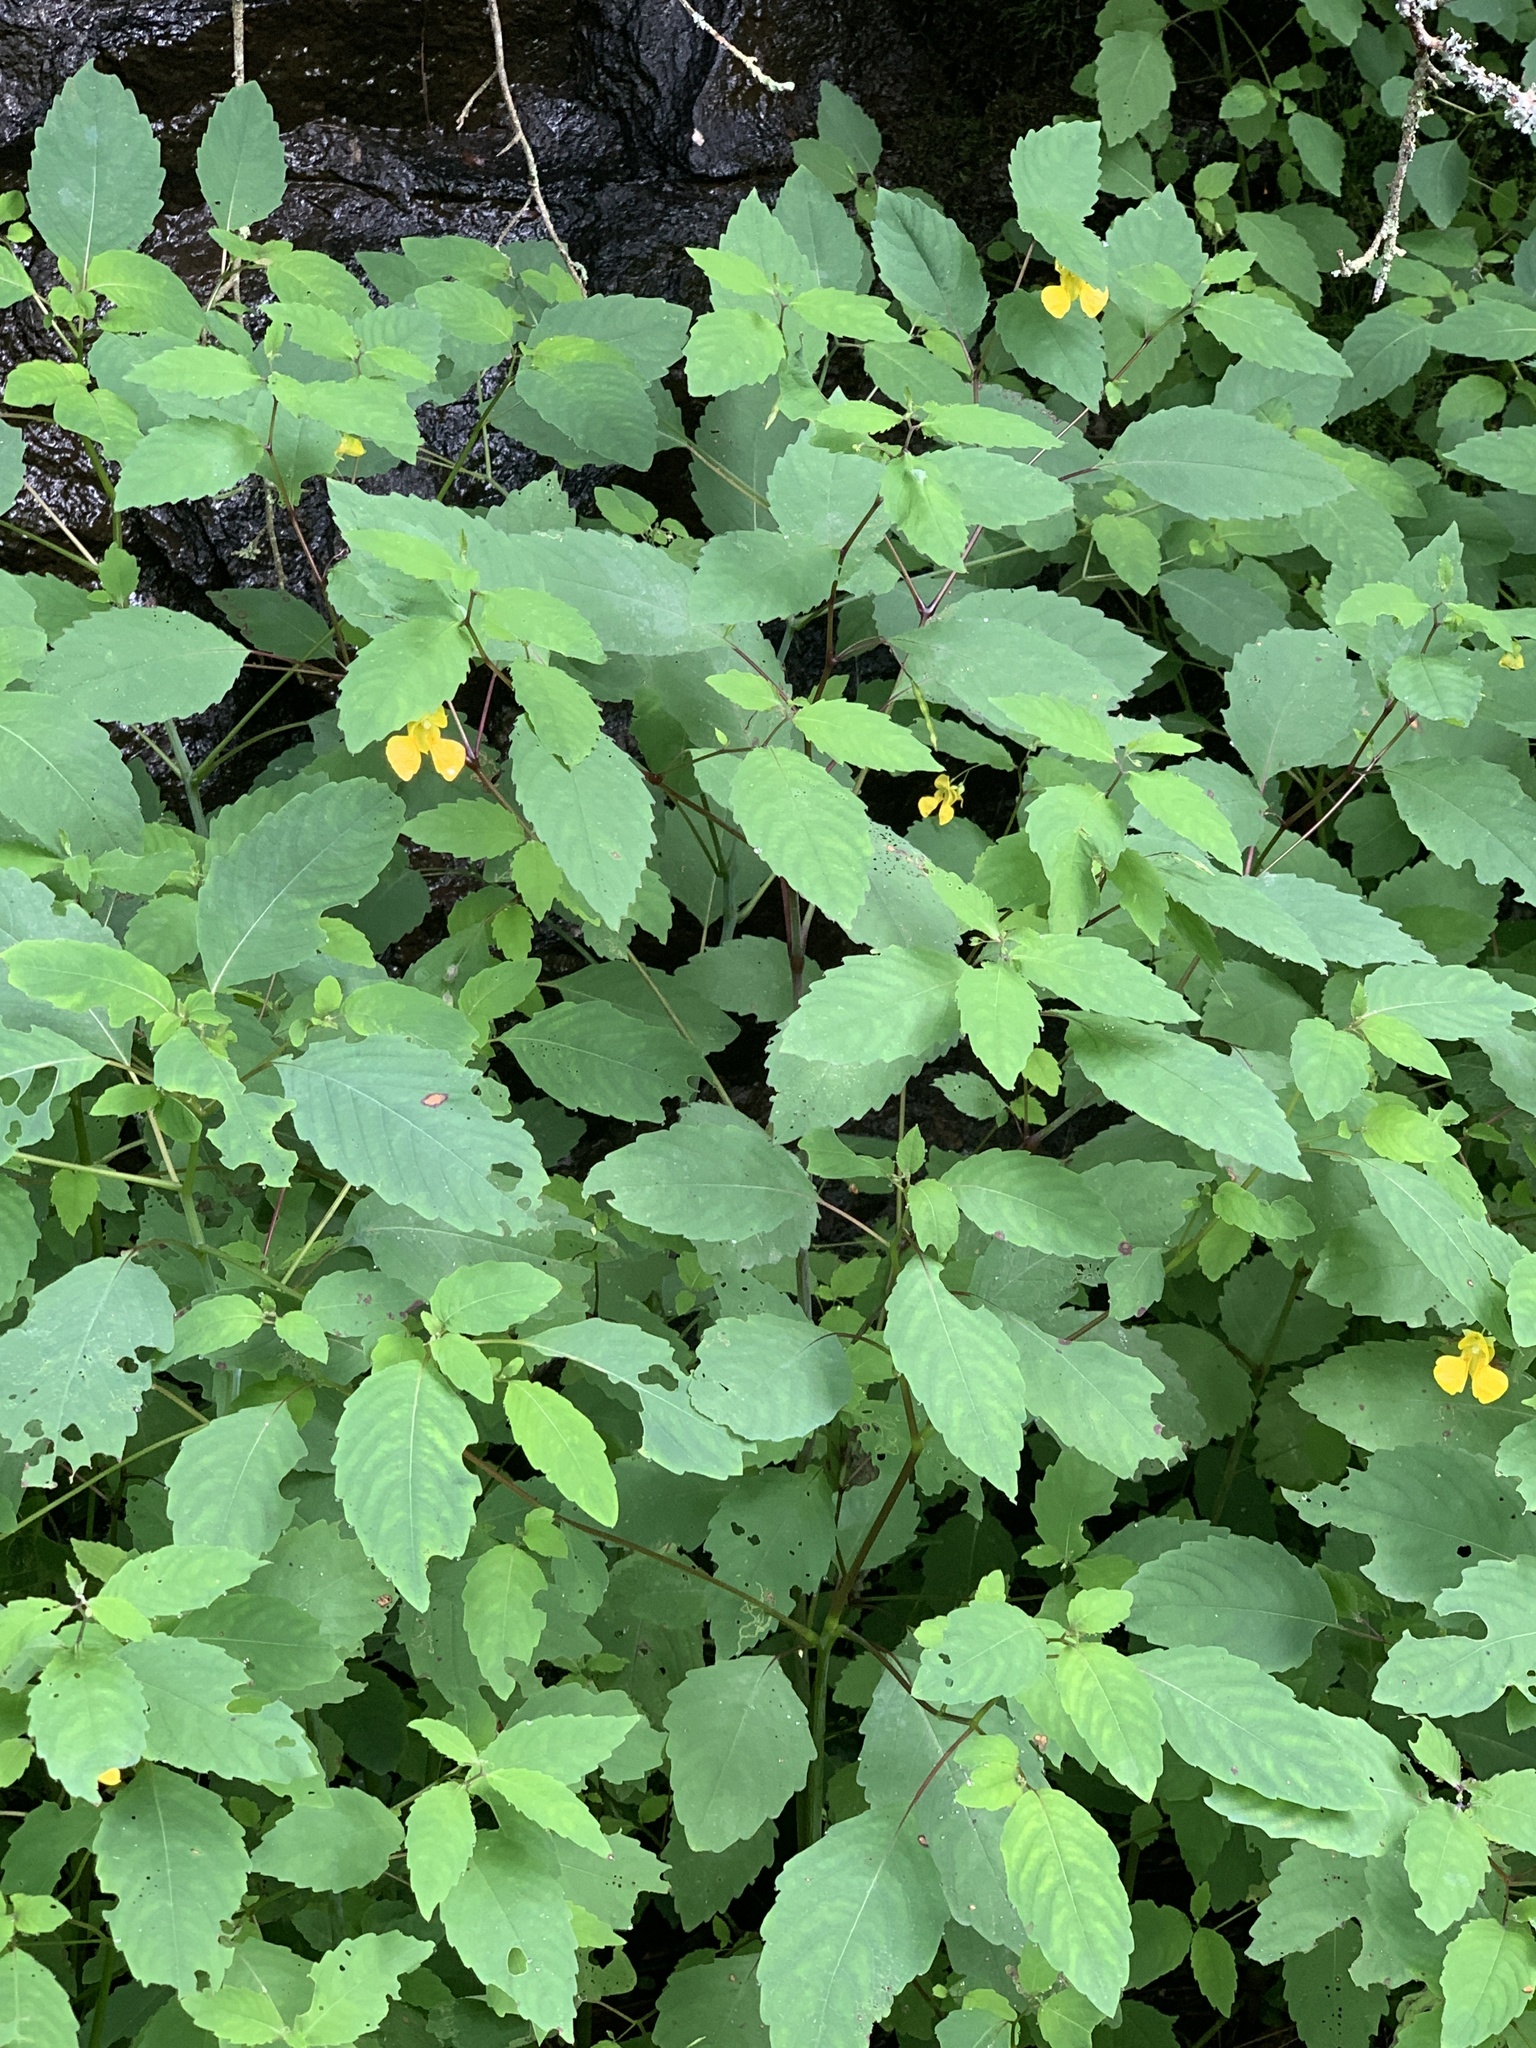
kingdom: Plantae
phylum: Tracheophyta
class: Magnoliopsida
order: Ericales
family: Balsaminaceae
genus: Impatiens
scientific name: Impatiens pallida
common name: Pale snapweed
